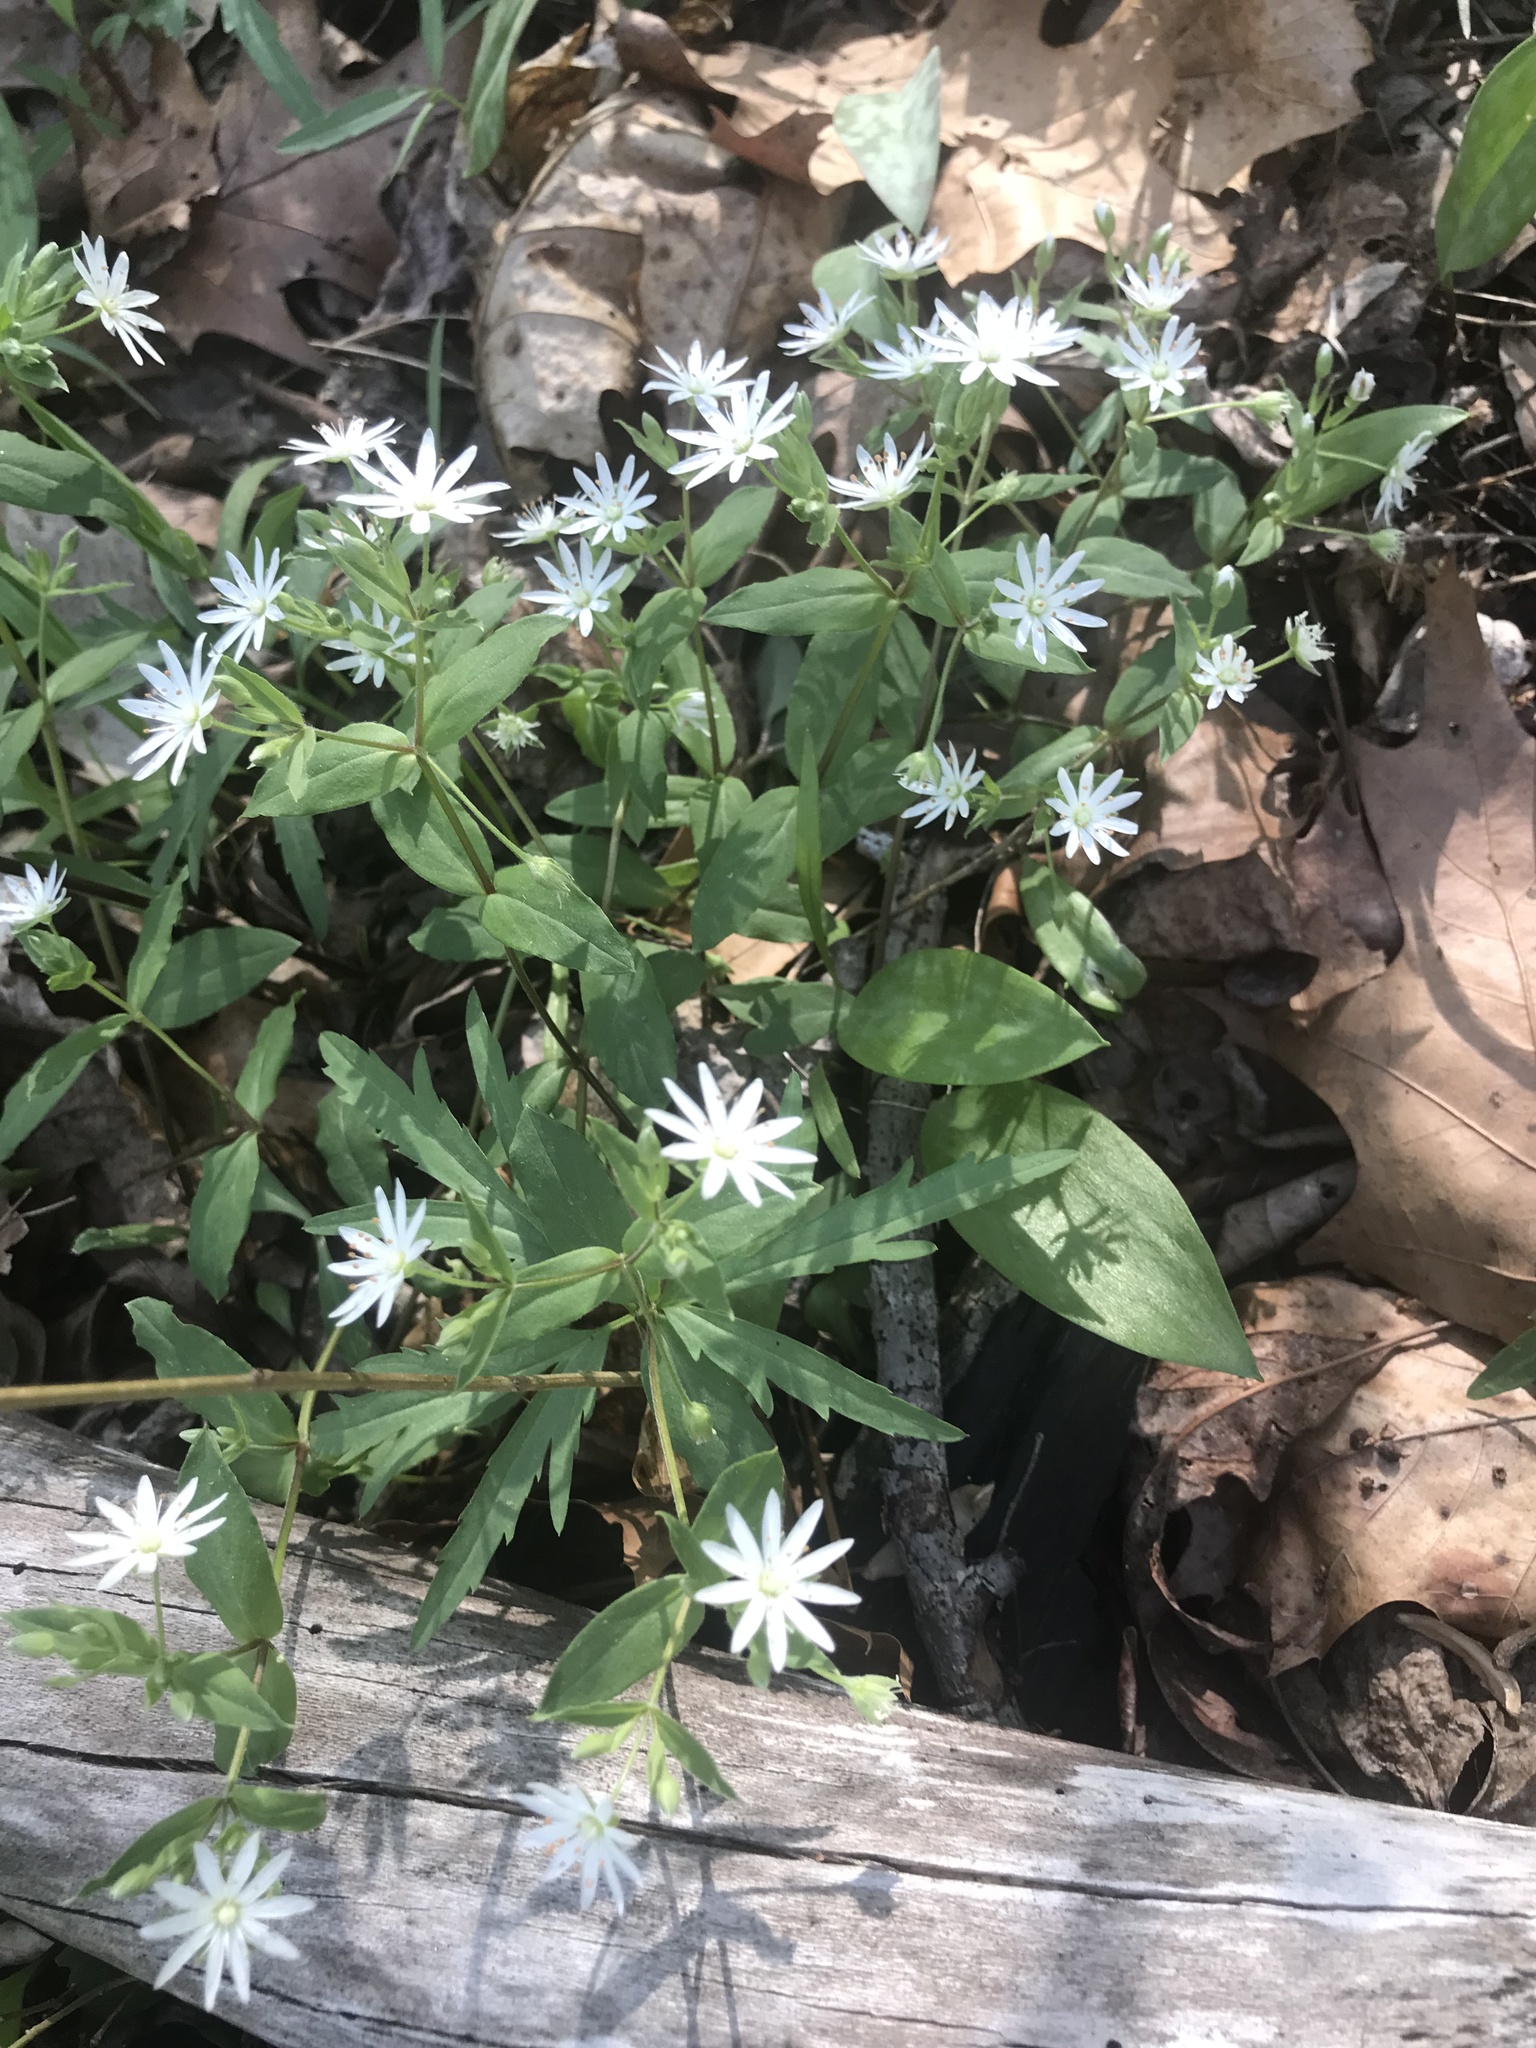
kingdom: Plantae
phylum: Tracheophyta
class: Magnoliopsida
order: Caryophyllales
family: Caryophyllaceae
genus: Stellaria
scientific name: Stellaria pubera
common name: Star chickweed
